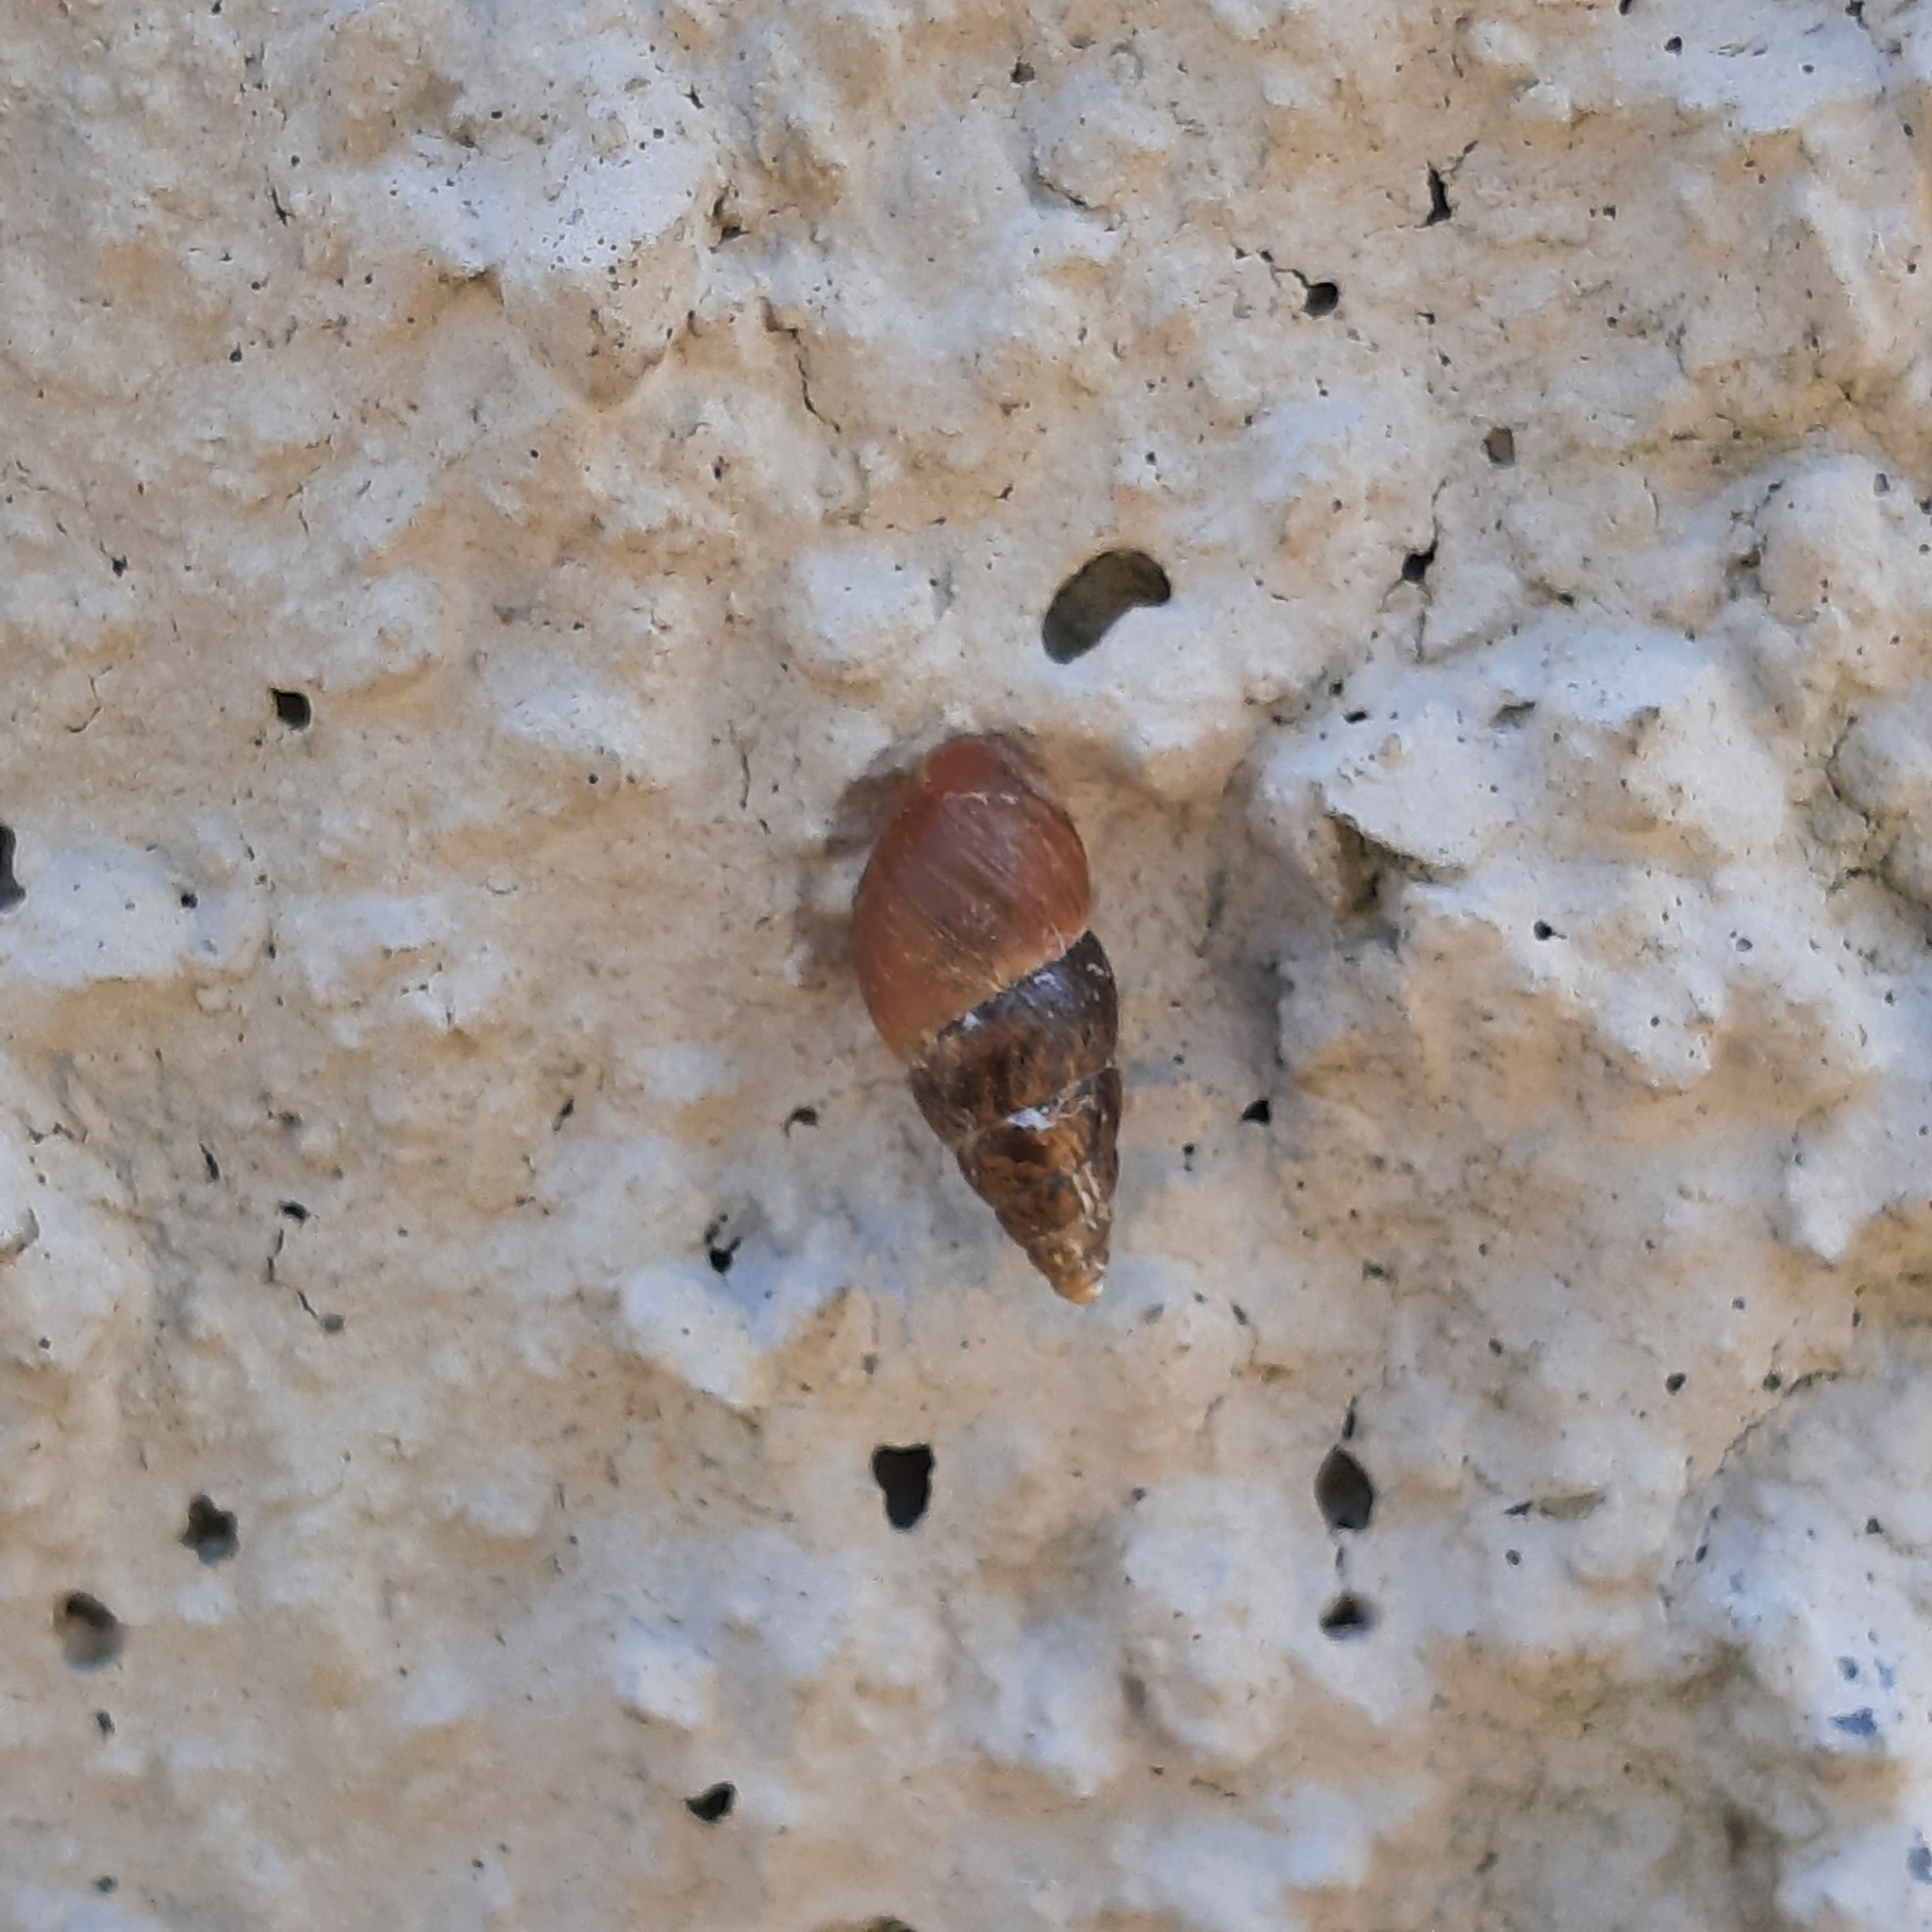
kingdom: Animalia
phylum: Mollusca
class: Gastropoda
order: Stylommatophora
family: Enidae
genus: Ena
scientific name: Ena montana
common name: Mountain bulin
